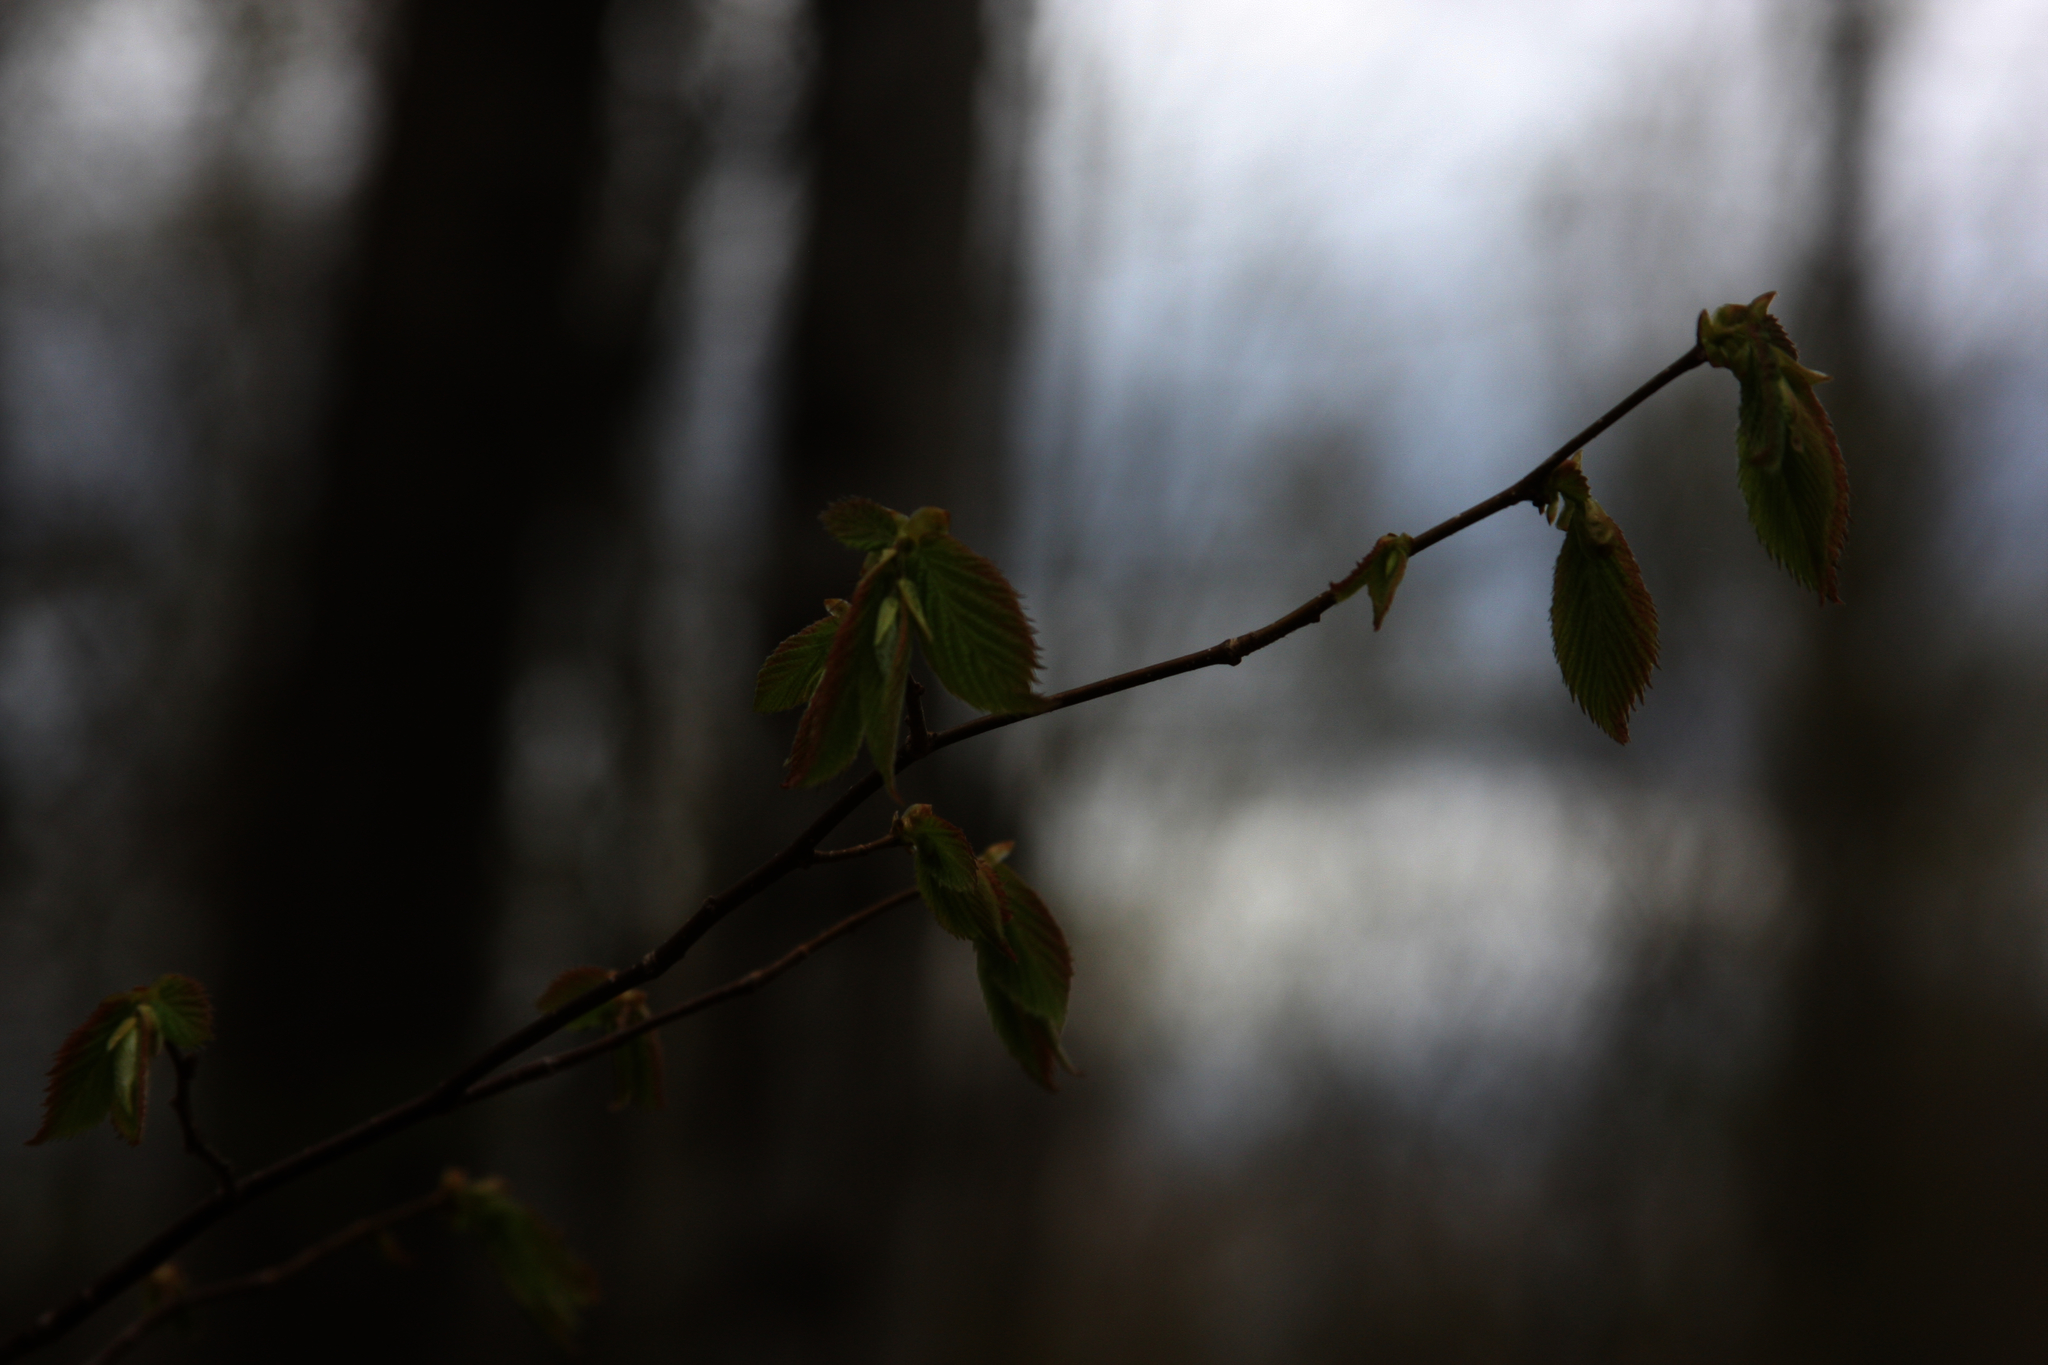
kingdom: Plantae
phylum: Tracheophyta
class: Magnoliopsida
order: Fagales
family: Fagaceae
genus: Fagus
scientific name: Fagus grandifolia
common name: American beech
